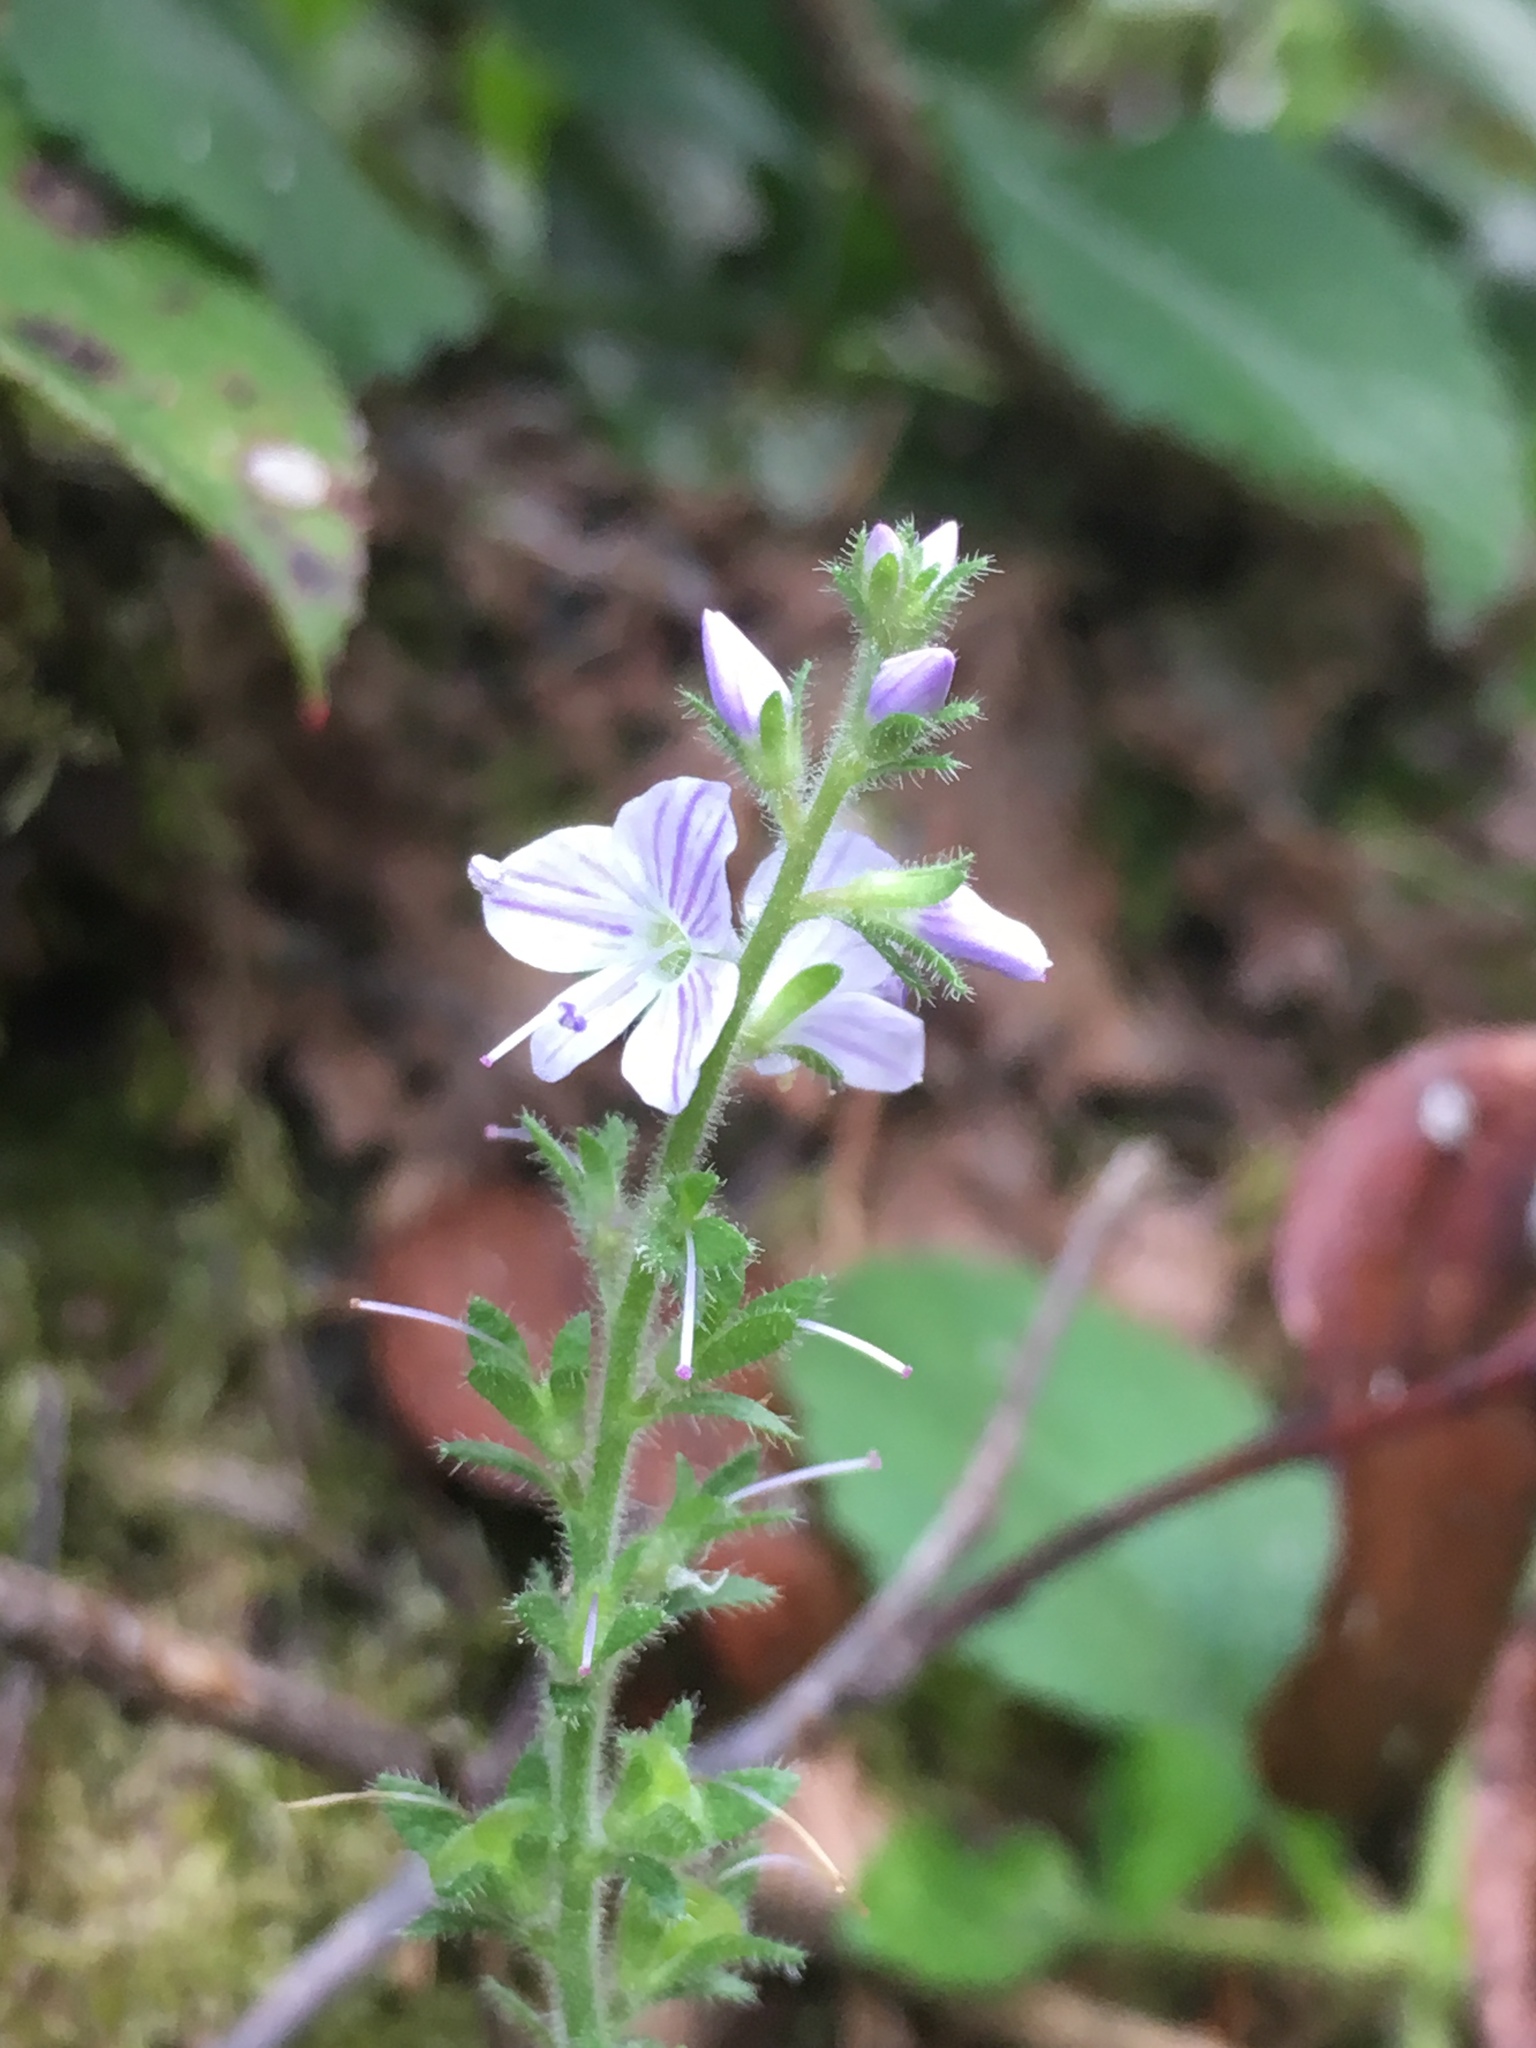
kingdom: Plantae
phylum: Tracheophyta
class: Magnoliopsida
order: Lamiales
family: Plantaginaceae
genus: Veronica
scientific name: Veronica officinalis
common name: Common speedwell
